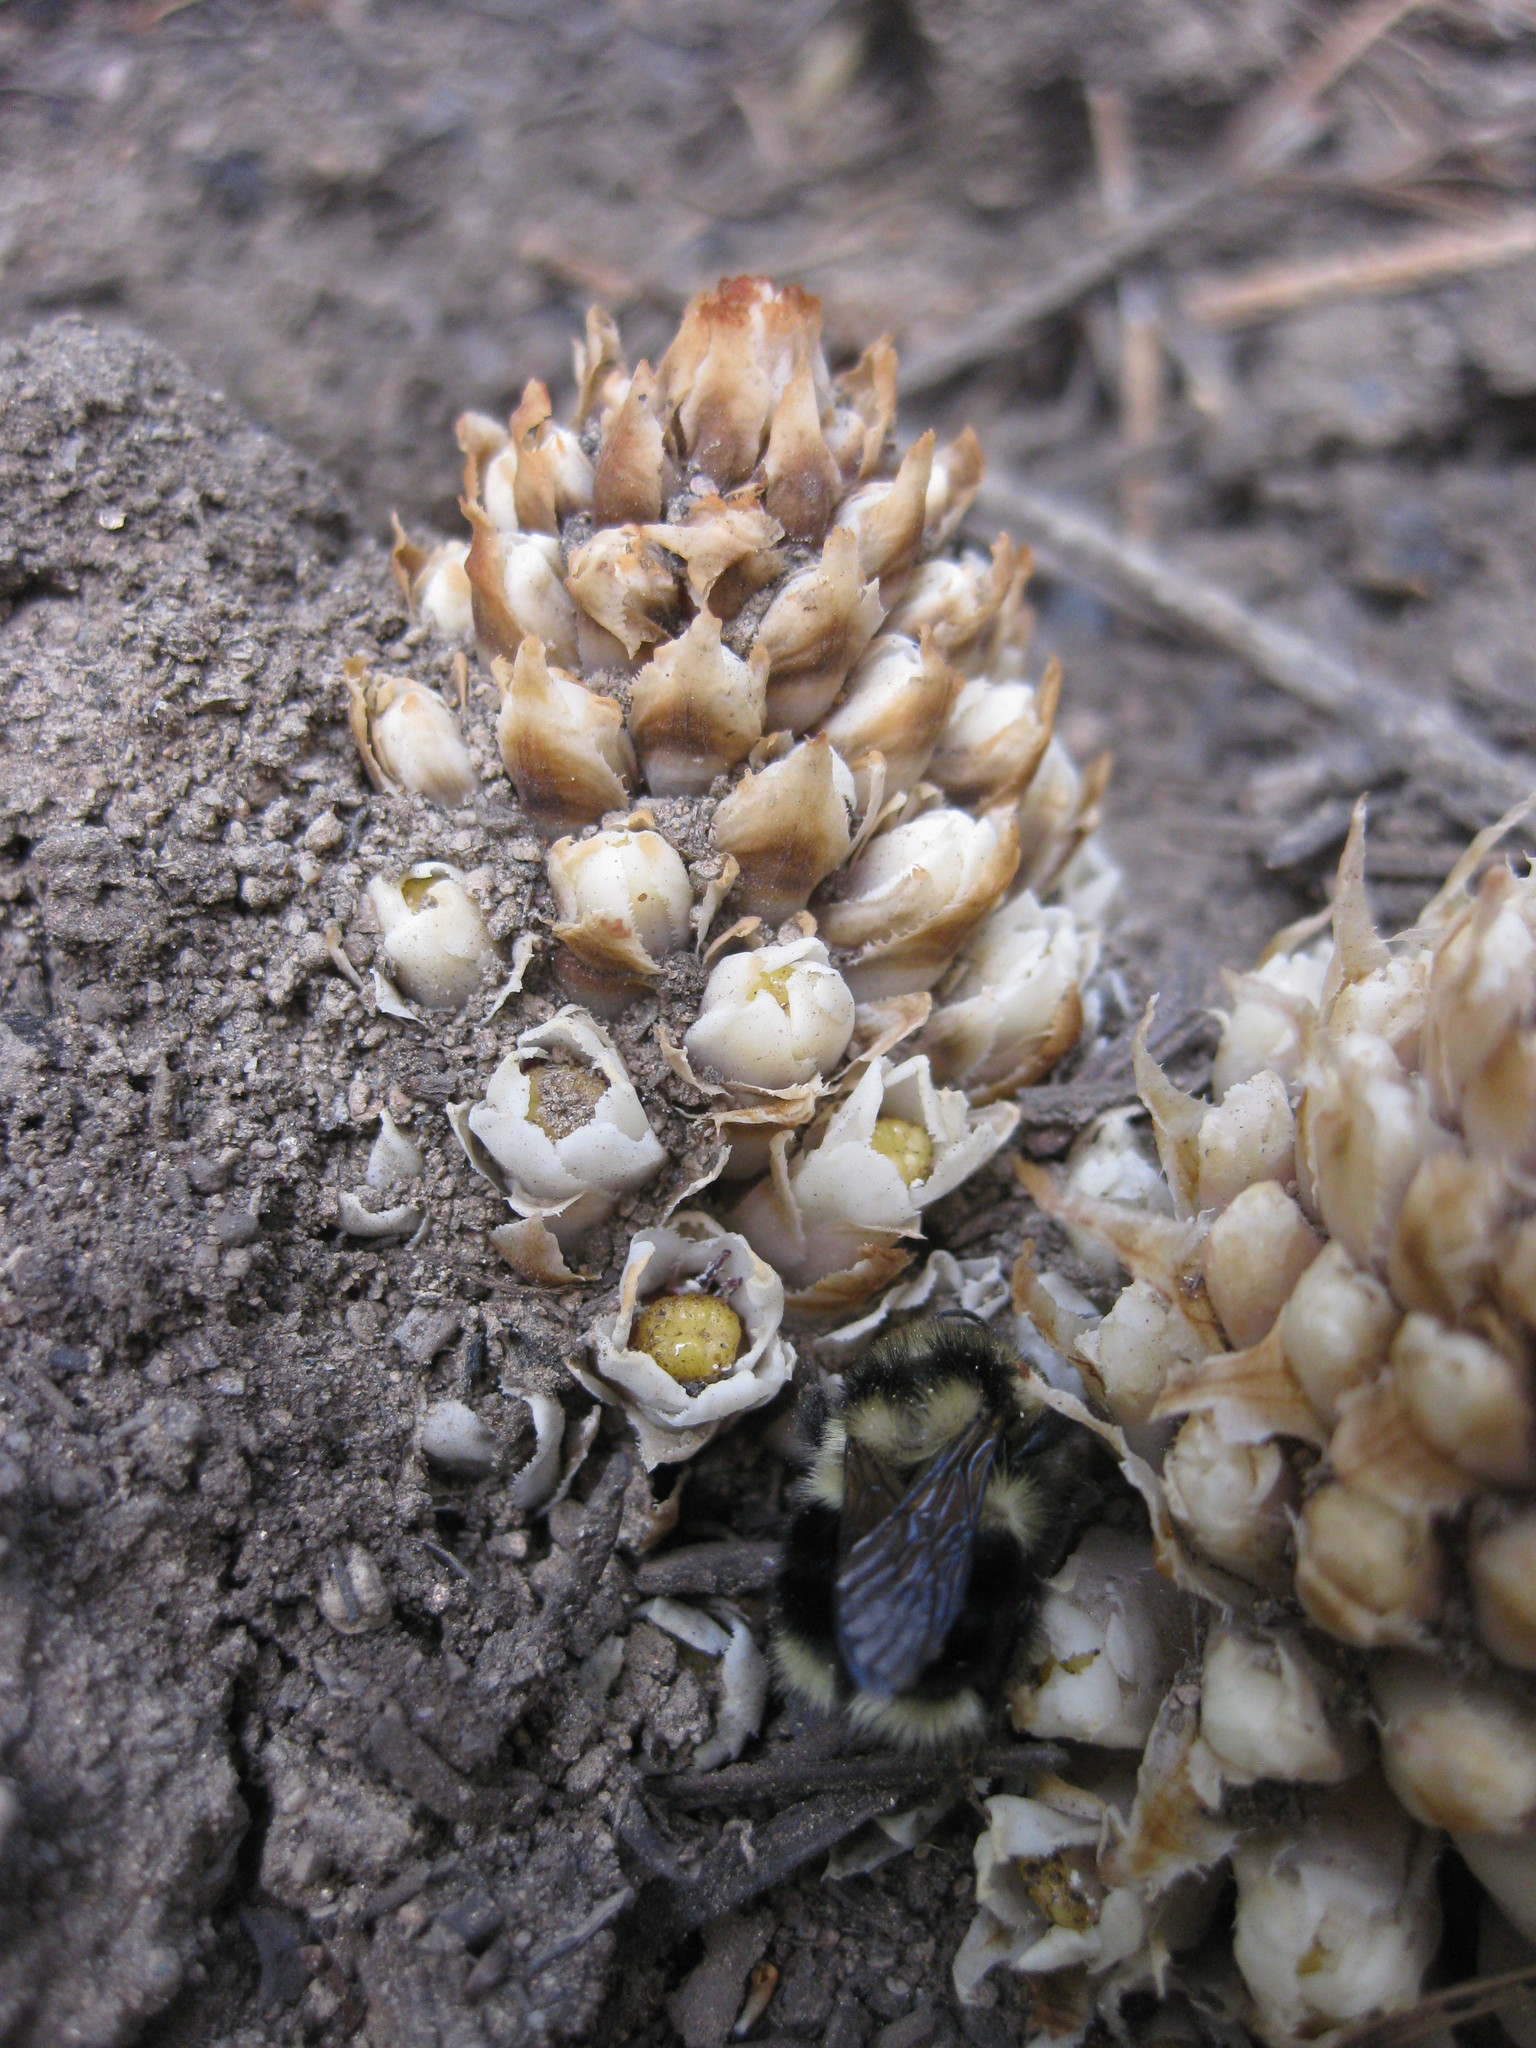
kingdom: Plantae
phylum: Tracheophyta
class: Magnoliopsida
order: Ericales
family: Ericaceae
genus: Pleuricospora
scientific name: Pleuricospora fimbriolata
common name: Fringed pinesap
